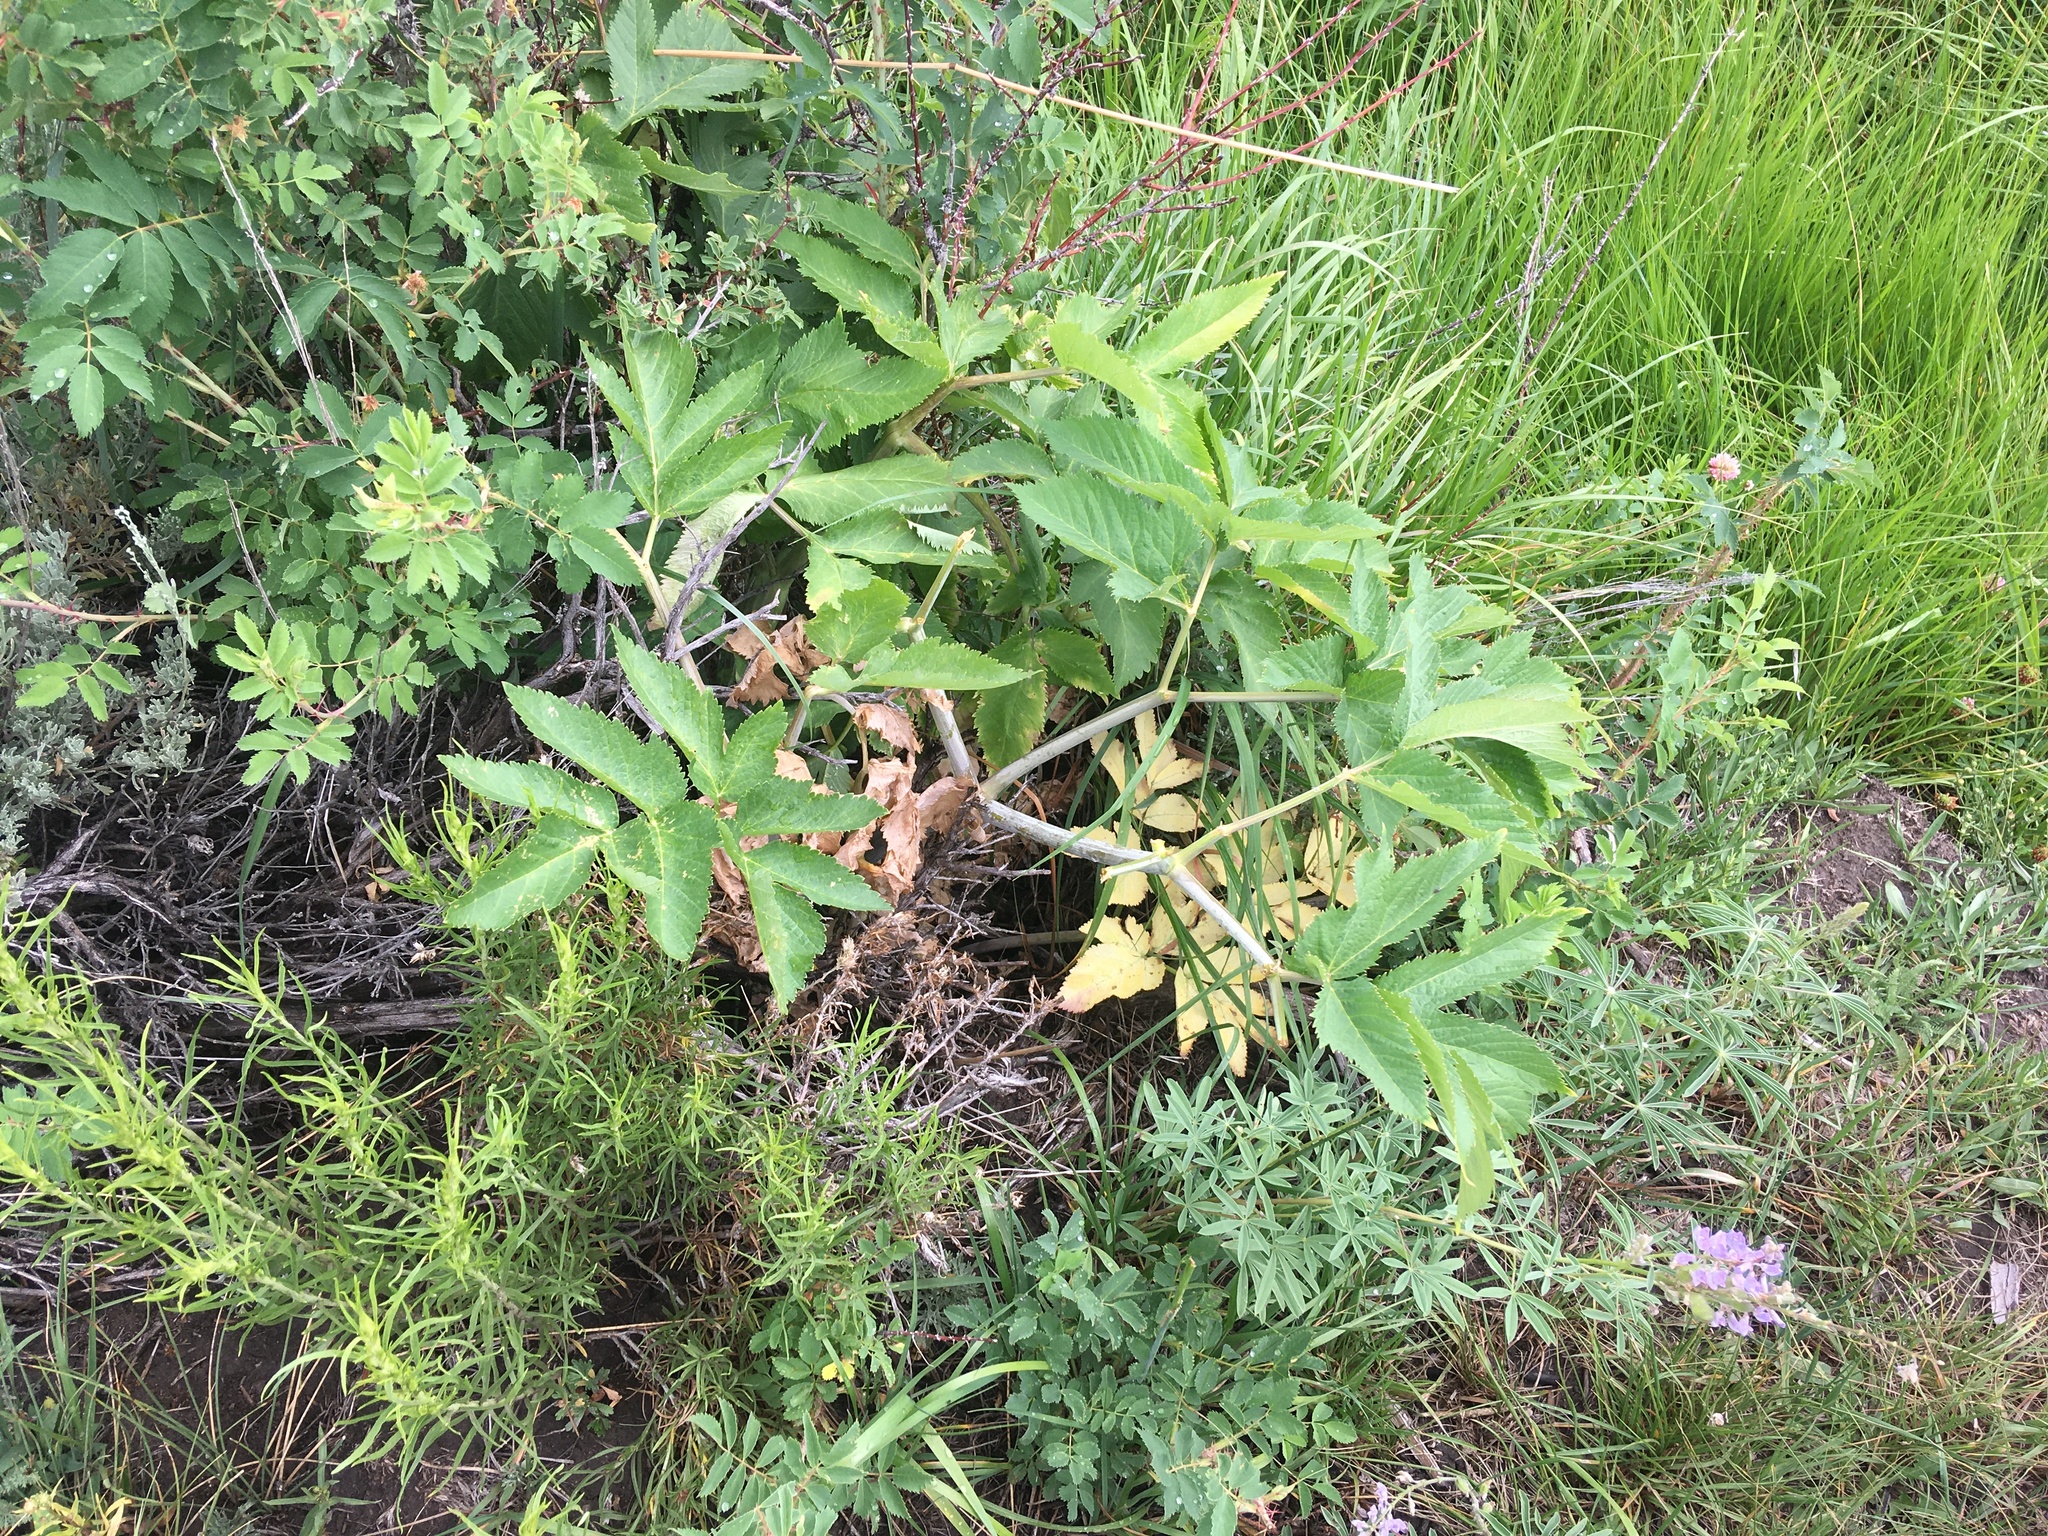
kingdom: Plantae
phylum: Tracheophyta
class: Magnoliopsida
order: Apiales
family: Apiaceae
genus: Heracleum
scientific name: Heracleum maximum
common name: American cow parsnip
